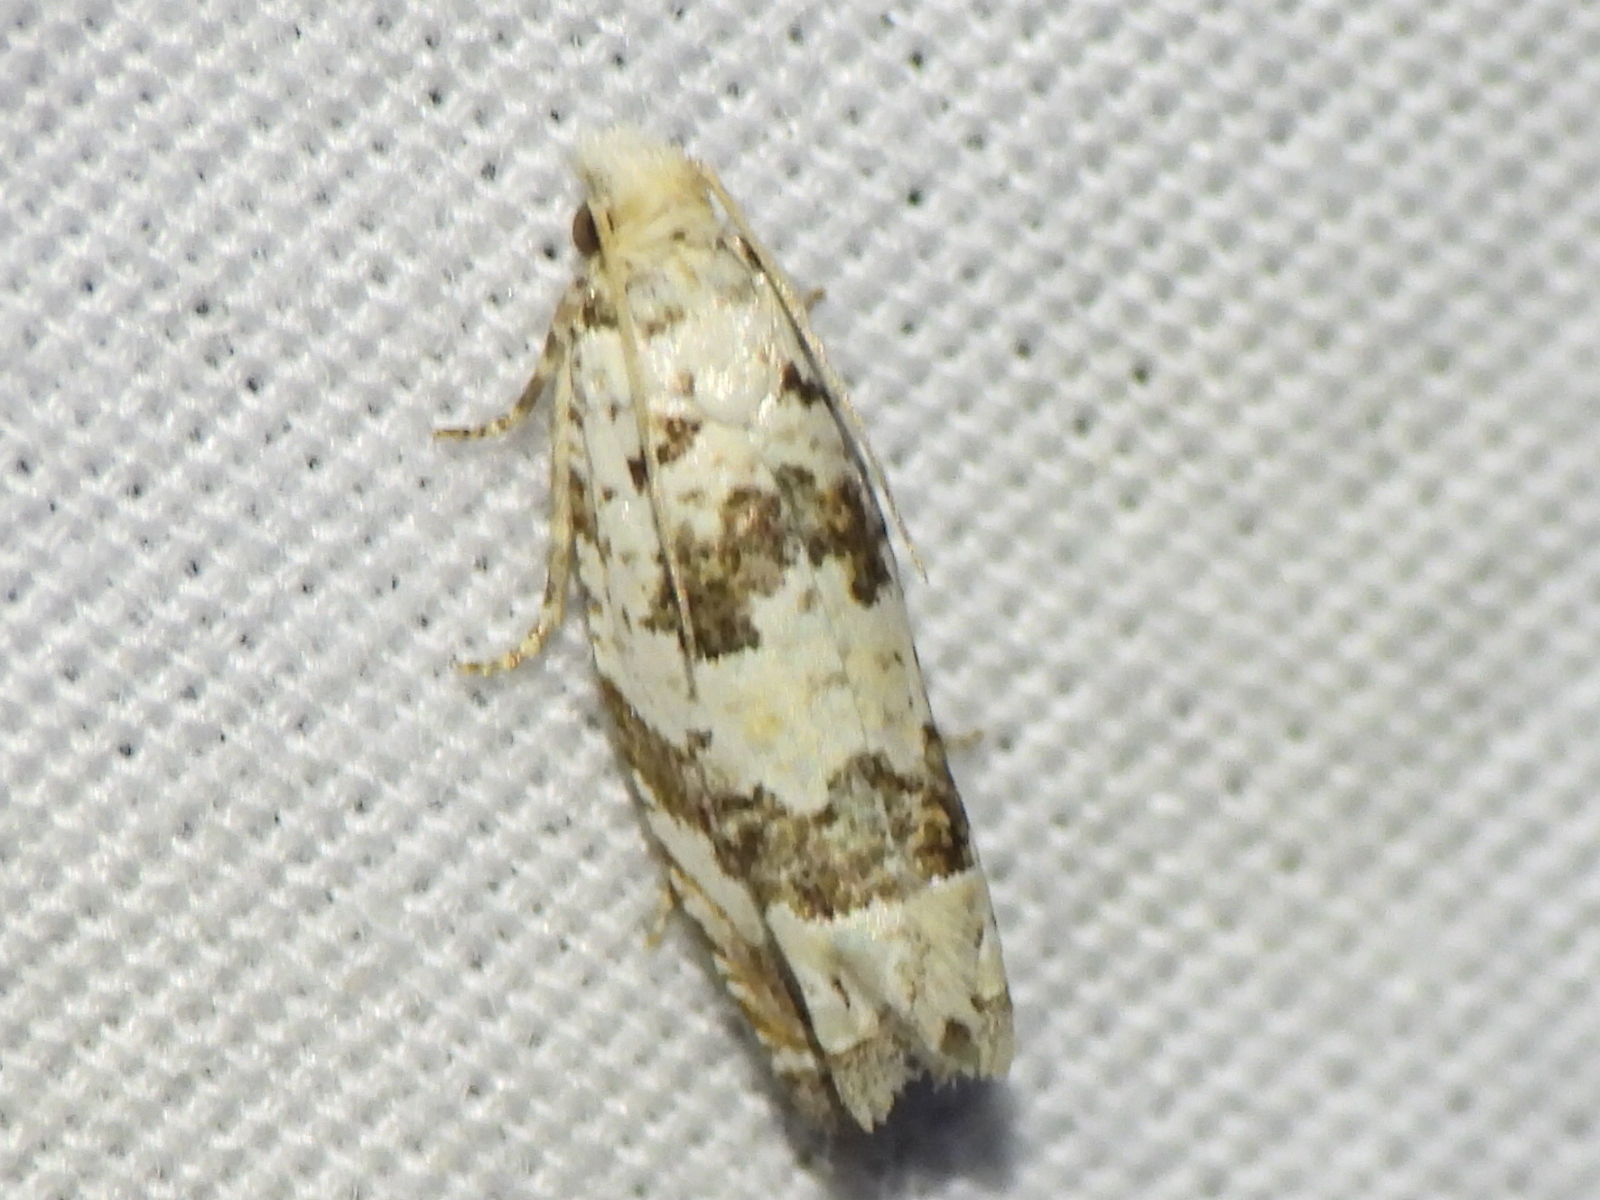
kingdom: Animalia
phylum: Arthropoda
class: Insecta
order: Lepidoptera
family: Tortricidae
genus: Pelochrista
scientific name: Pelochrista matutina
